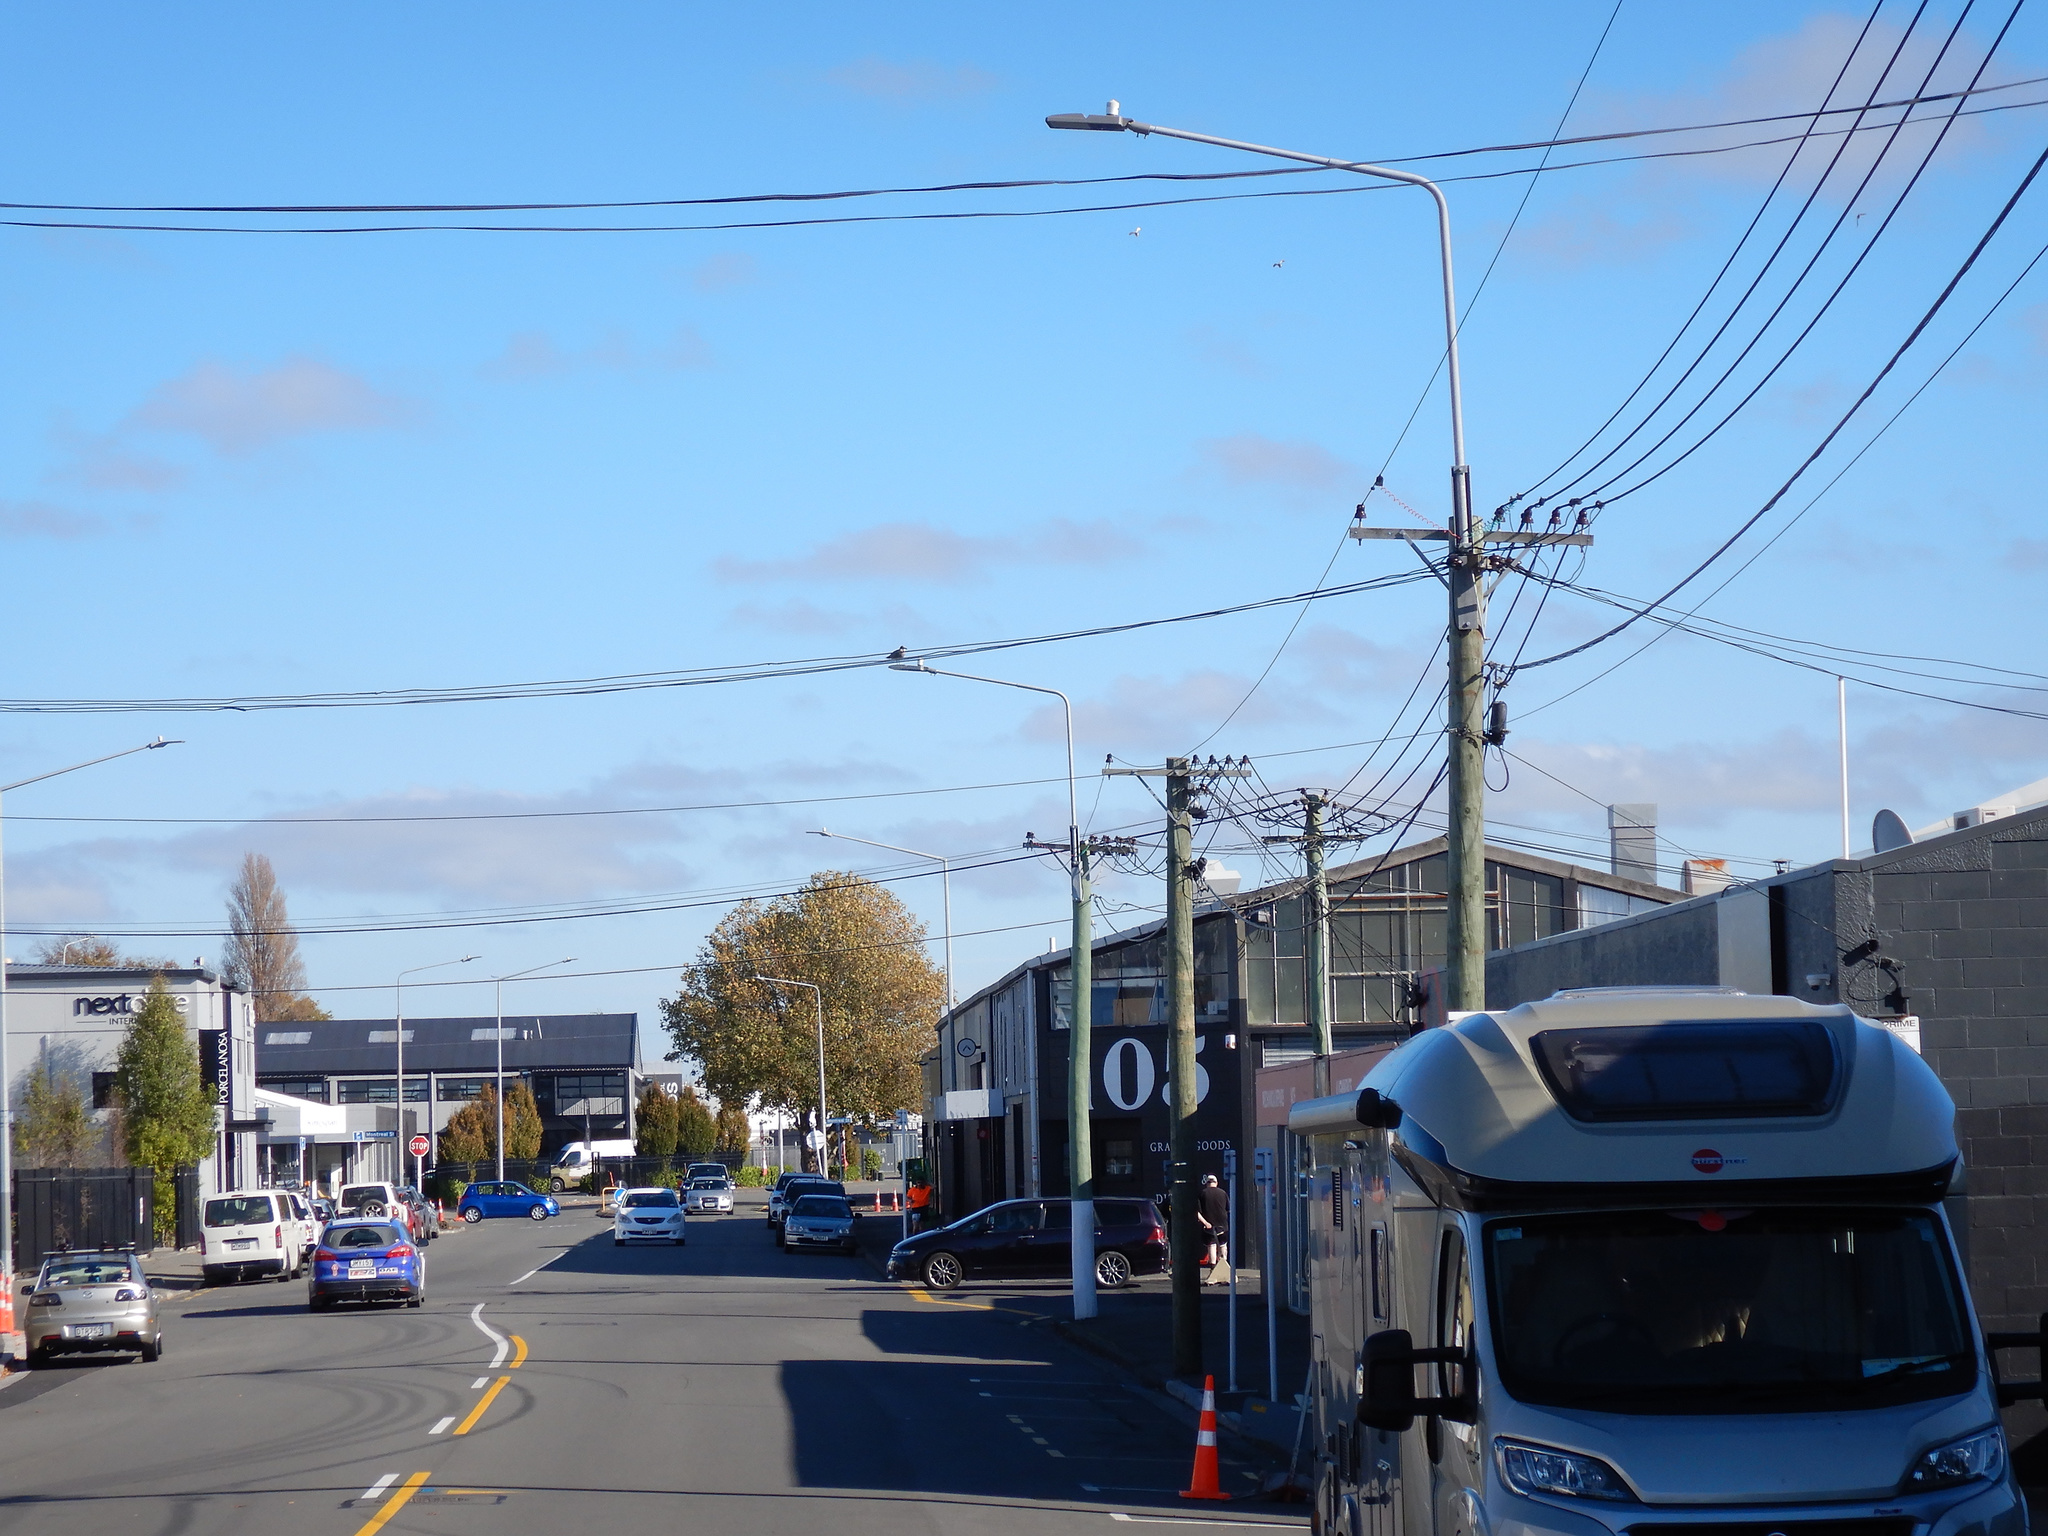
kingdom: Animalia
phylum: Chordata
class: Aves
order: Charadriiformes
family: Laridae
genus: Larus
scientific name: Larus dominicanus
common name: Kelp gull
